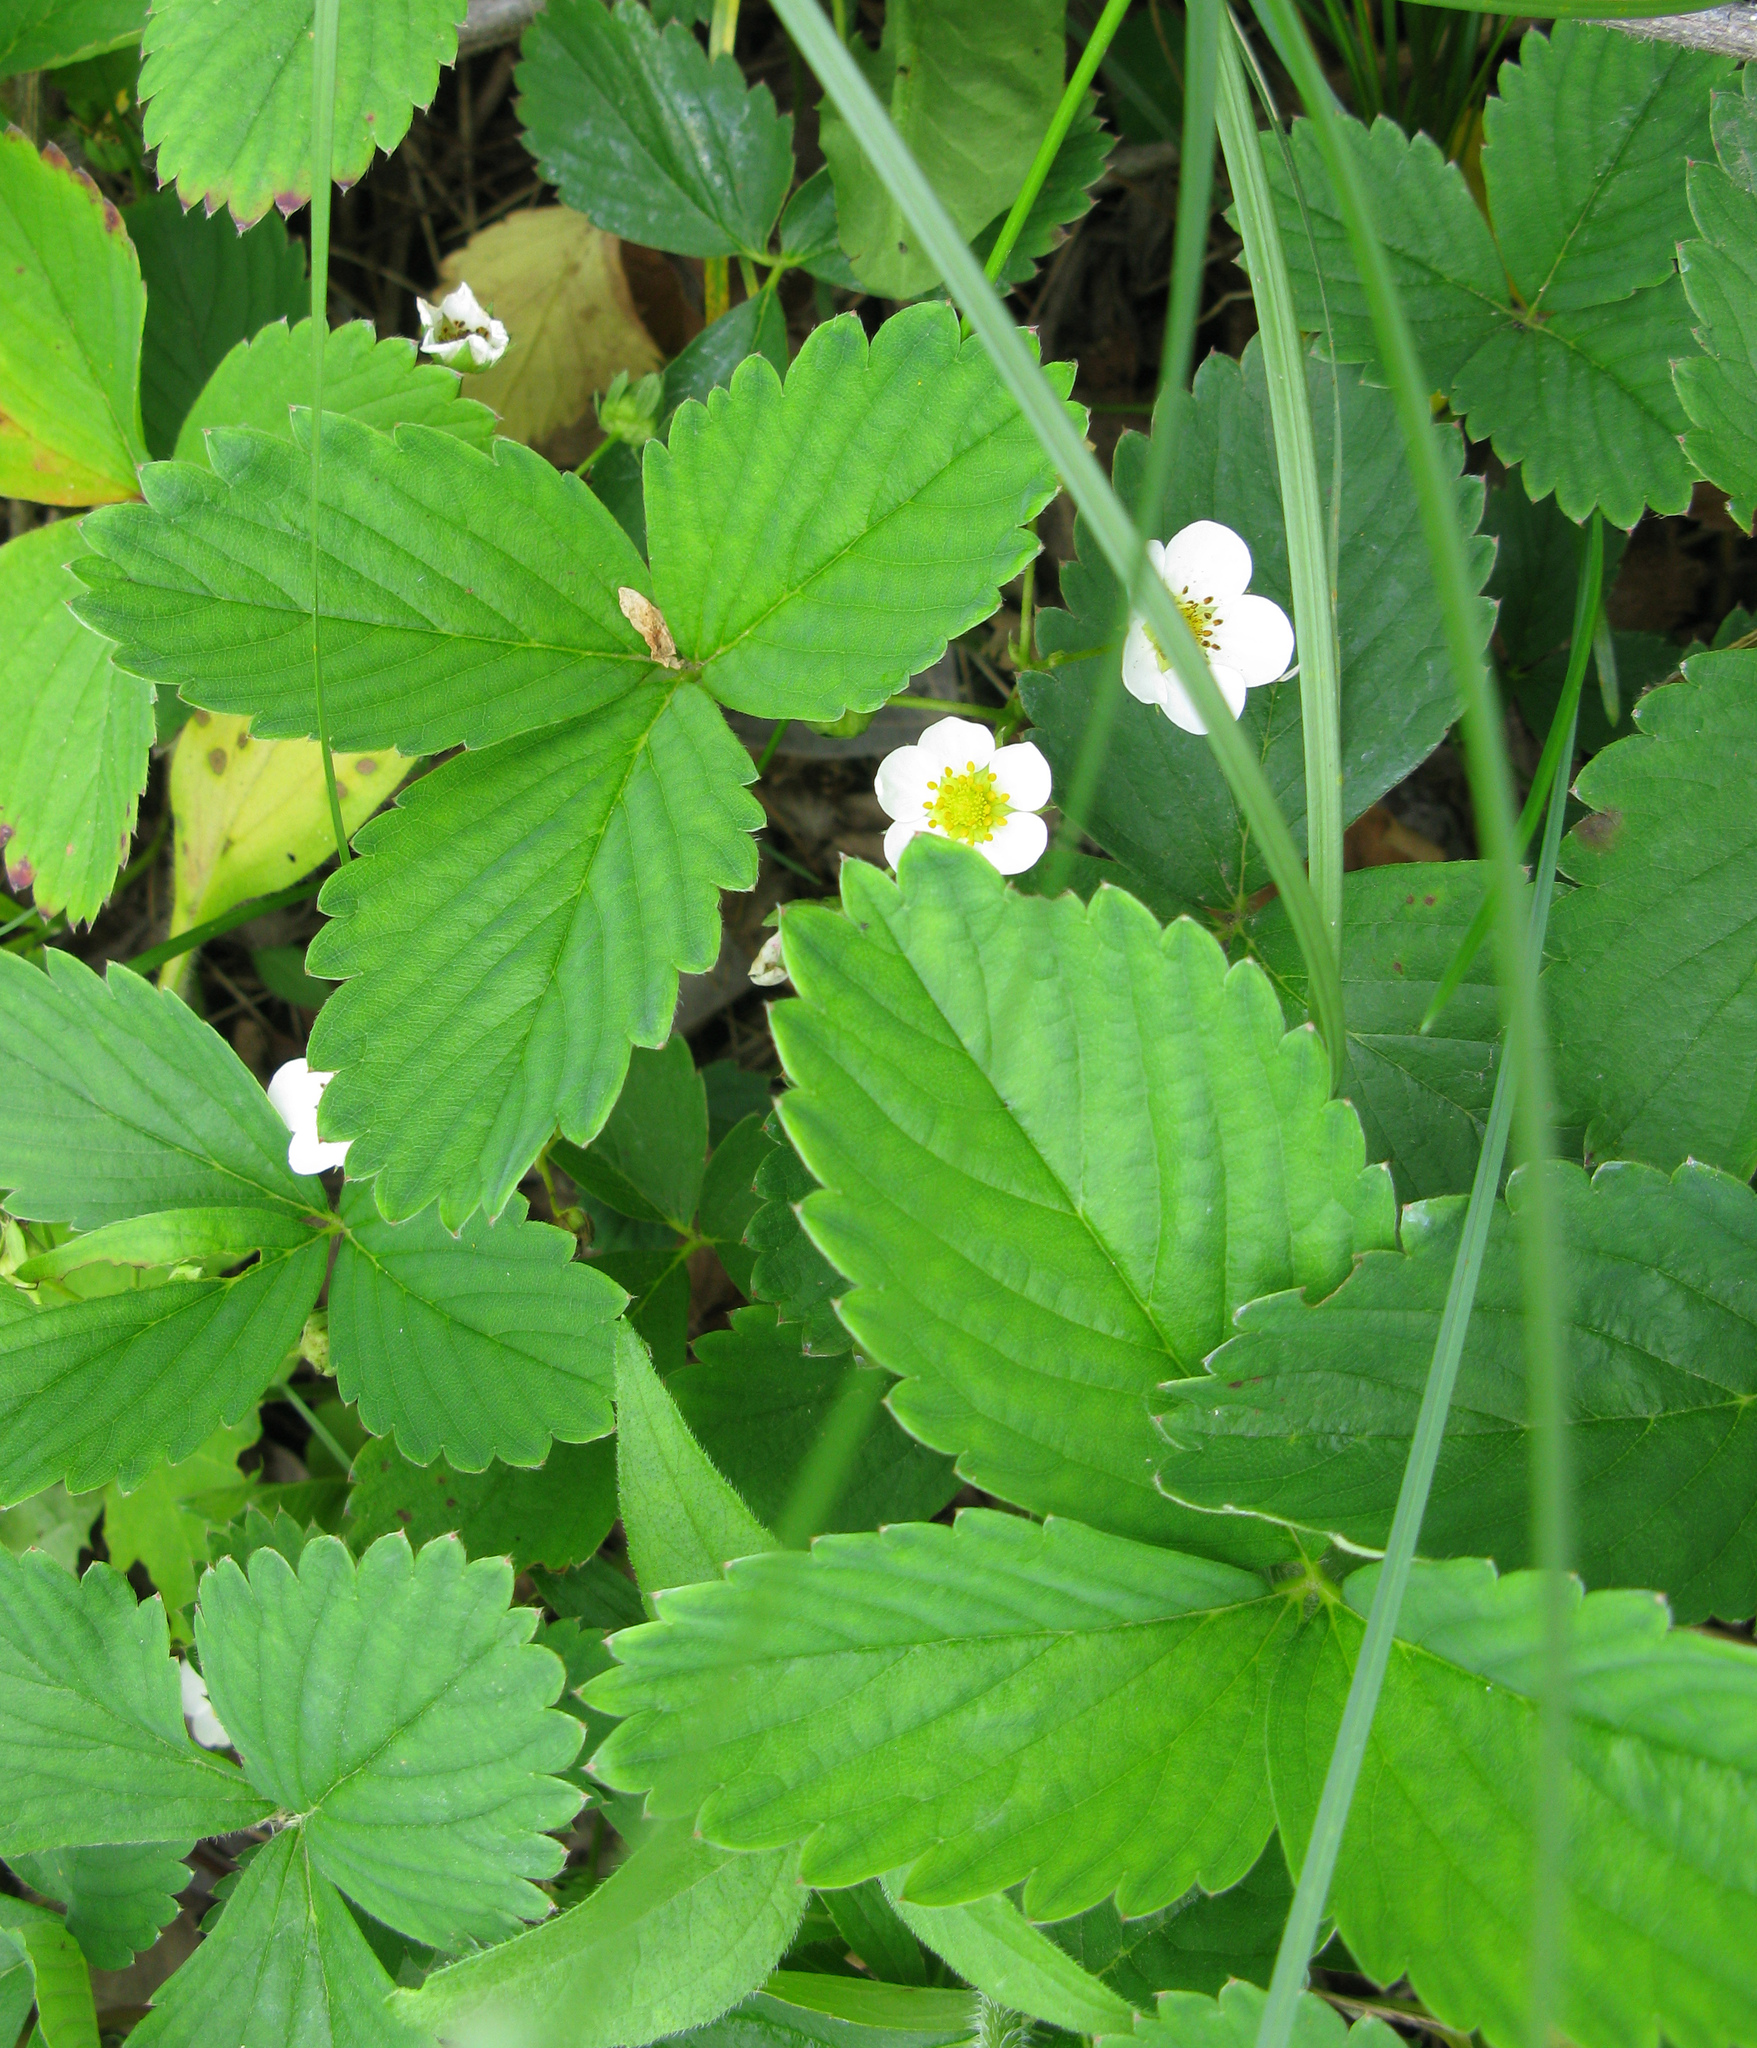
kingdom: Plantae
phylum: Tracheophyta
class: Magnoliopsida
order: Rosales
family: Rosaceae
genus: Fragaria
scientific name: Fragaria viridis
